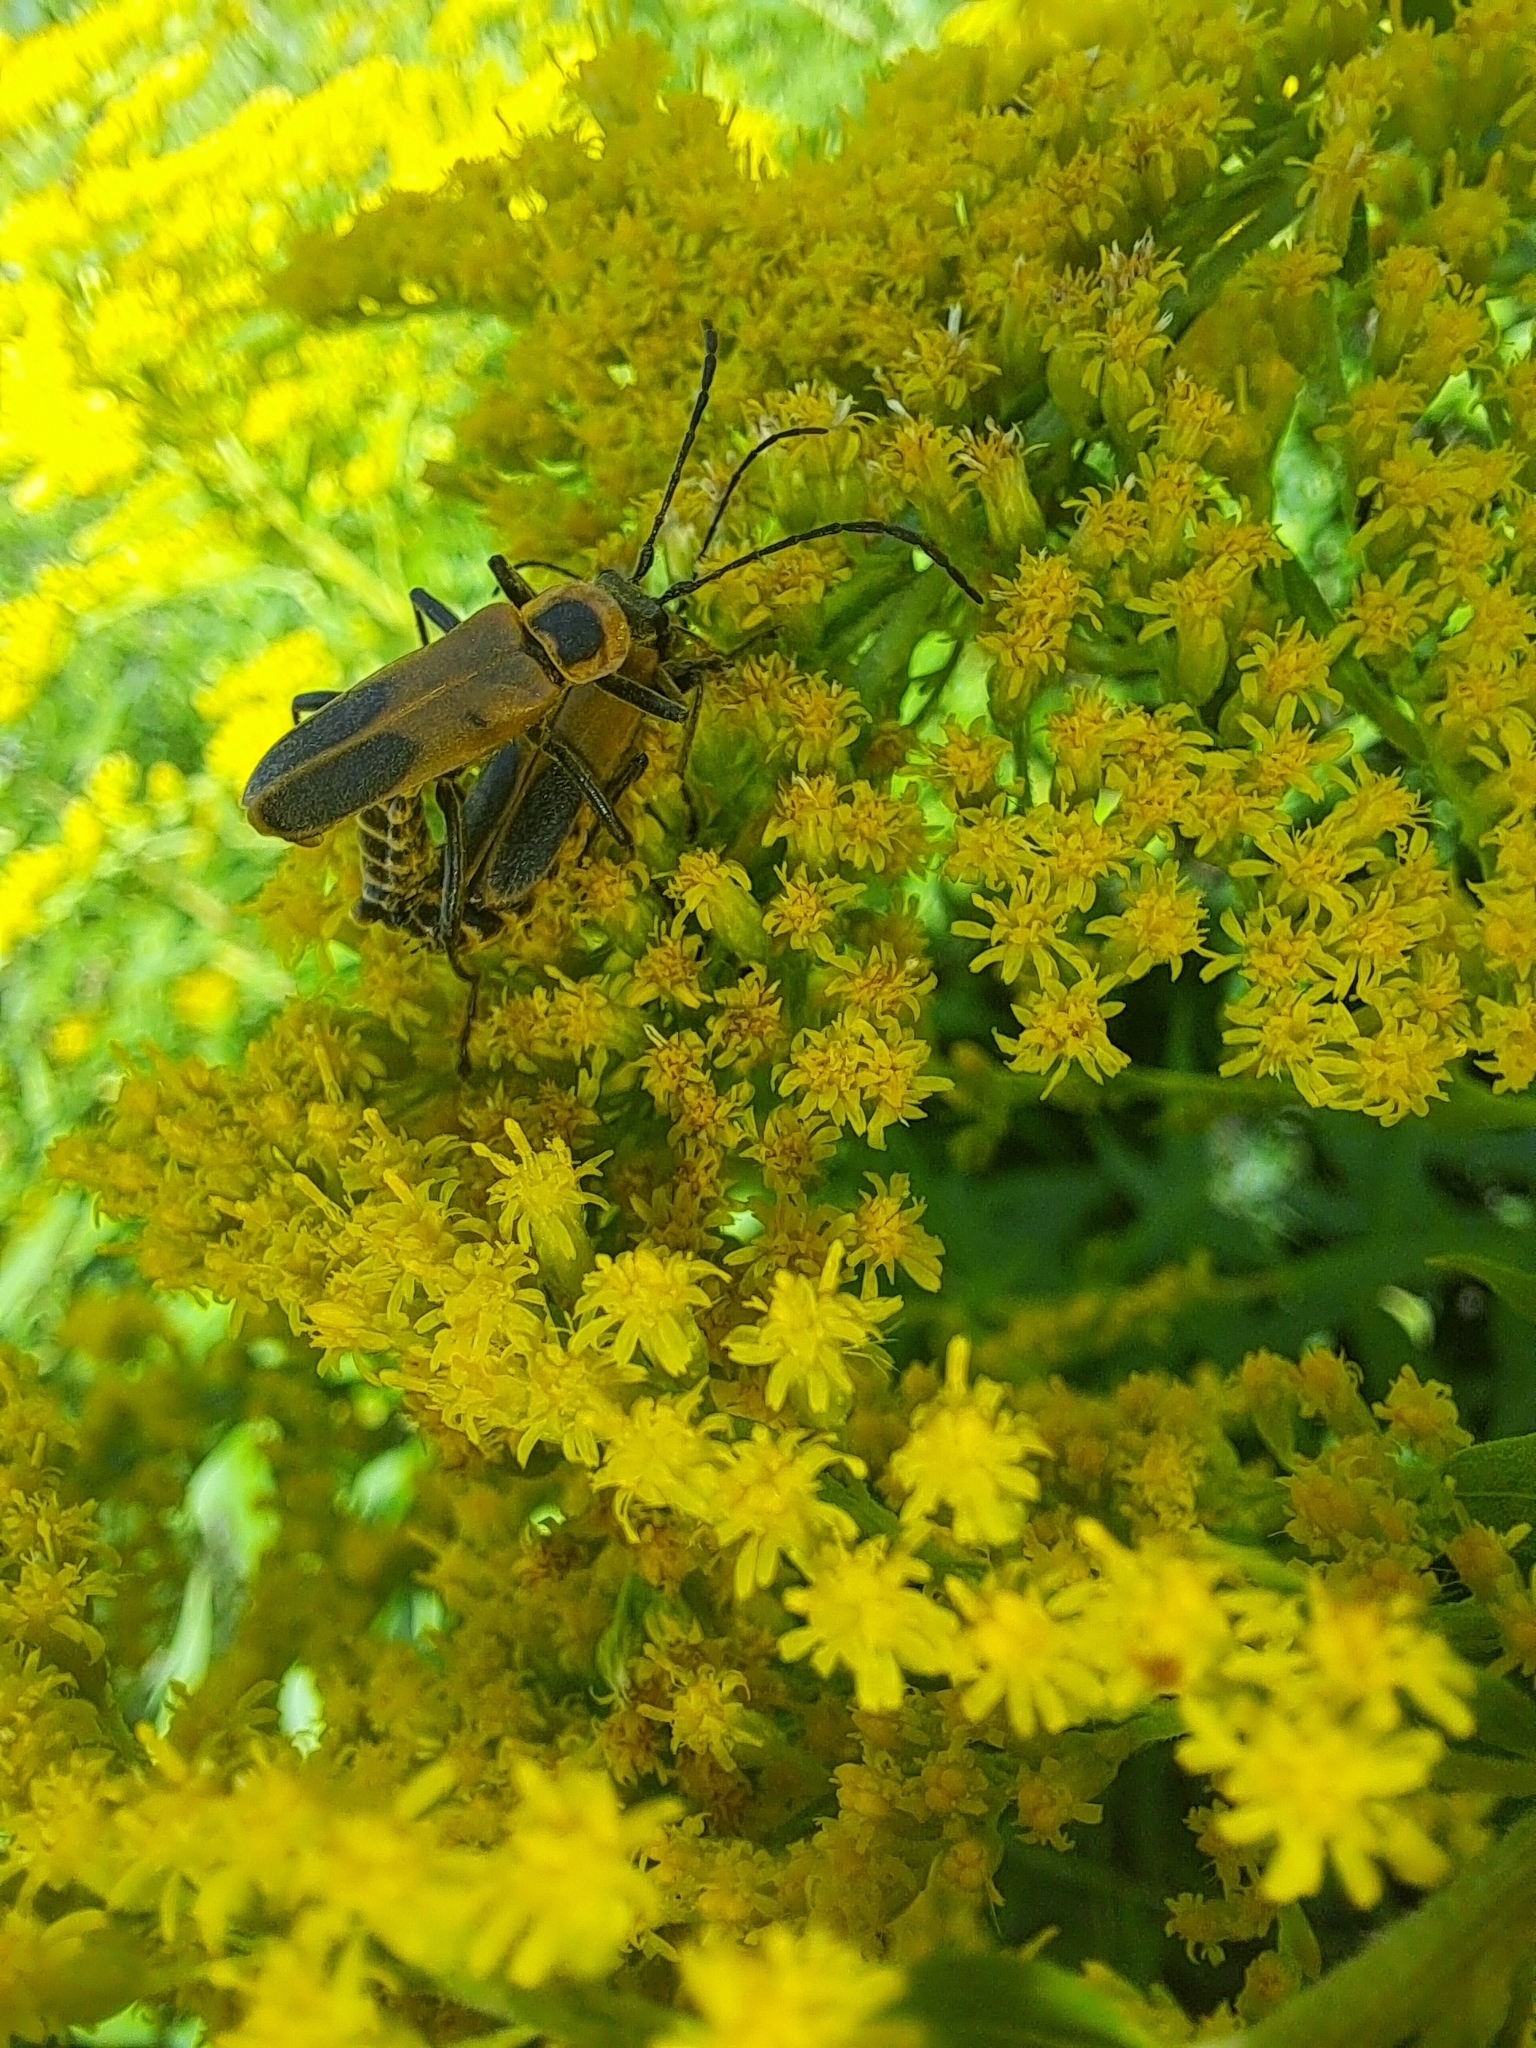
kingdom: Animalia
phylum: Arthropoda
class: Insecta
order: Coleoptera
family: Cantharidae
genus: Chauliognathus
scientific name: Chauliognathus pensylvanicus
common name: Goldenrod soldier beetle
